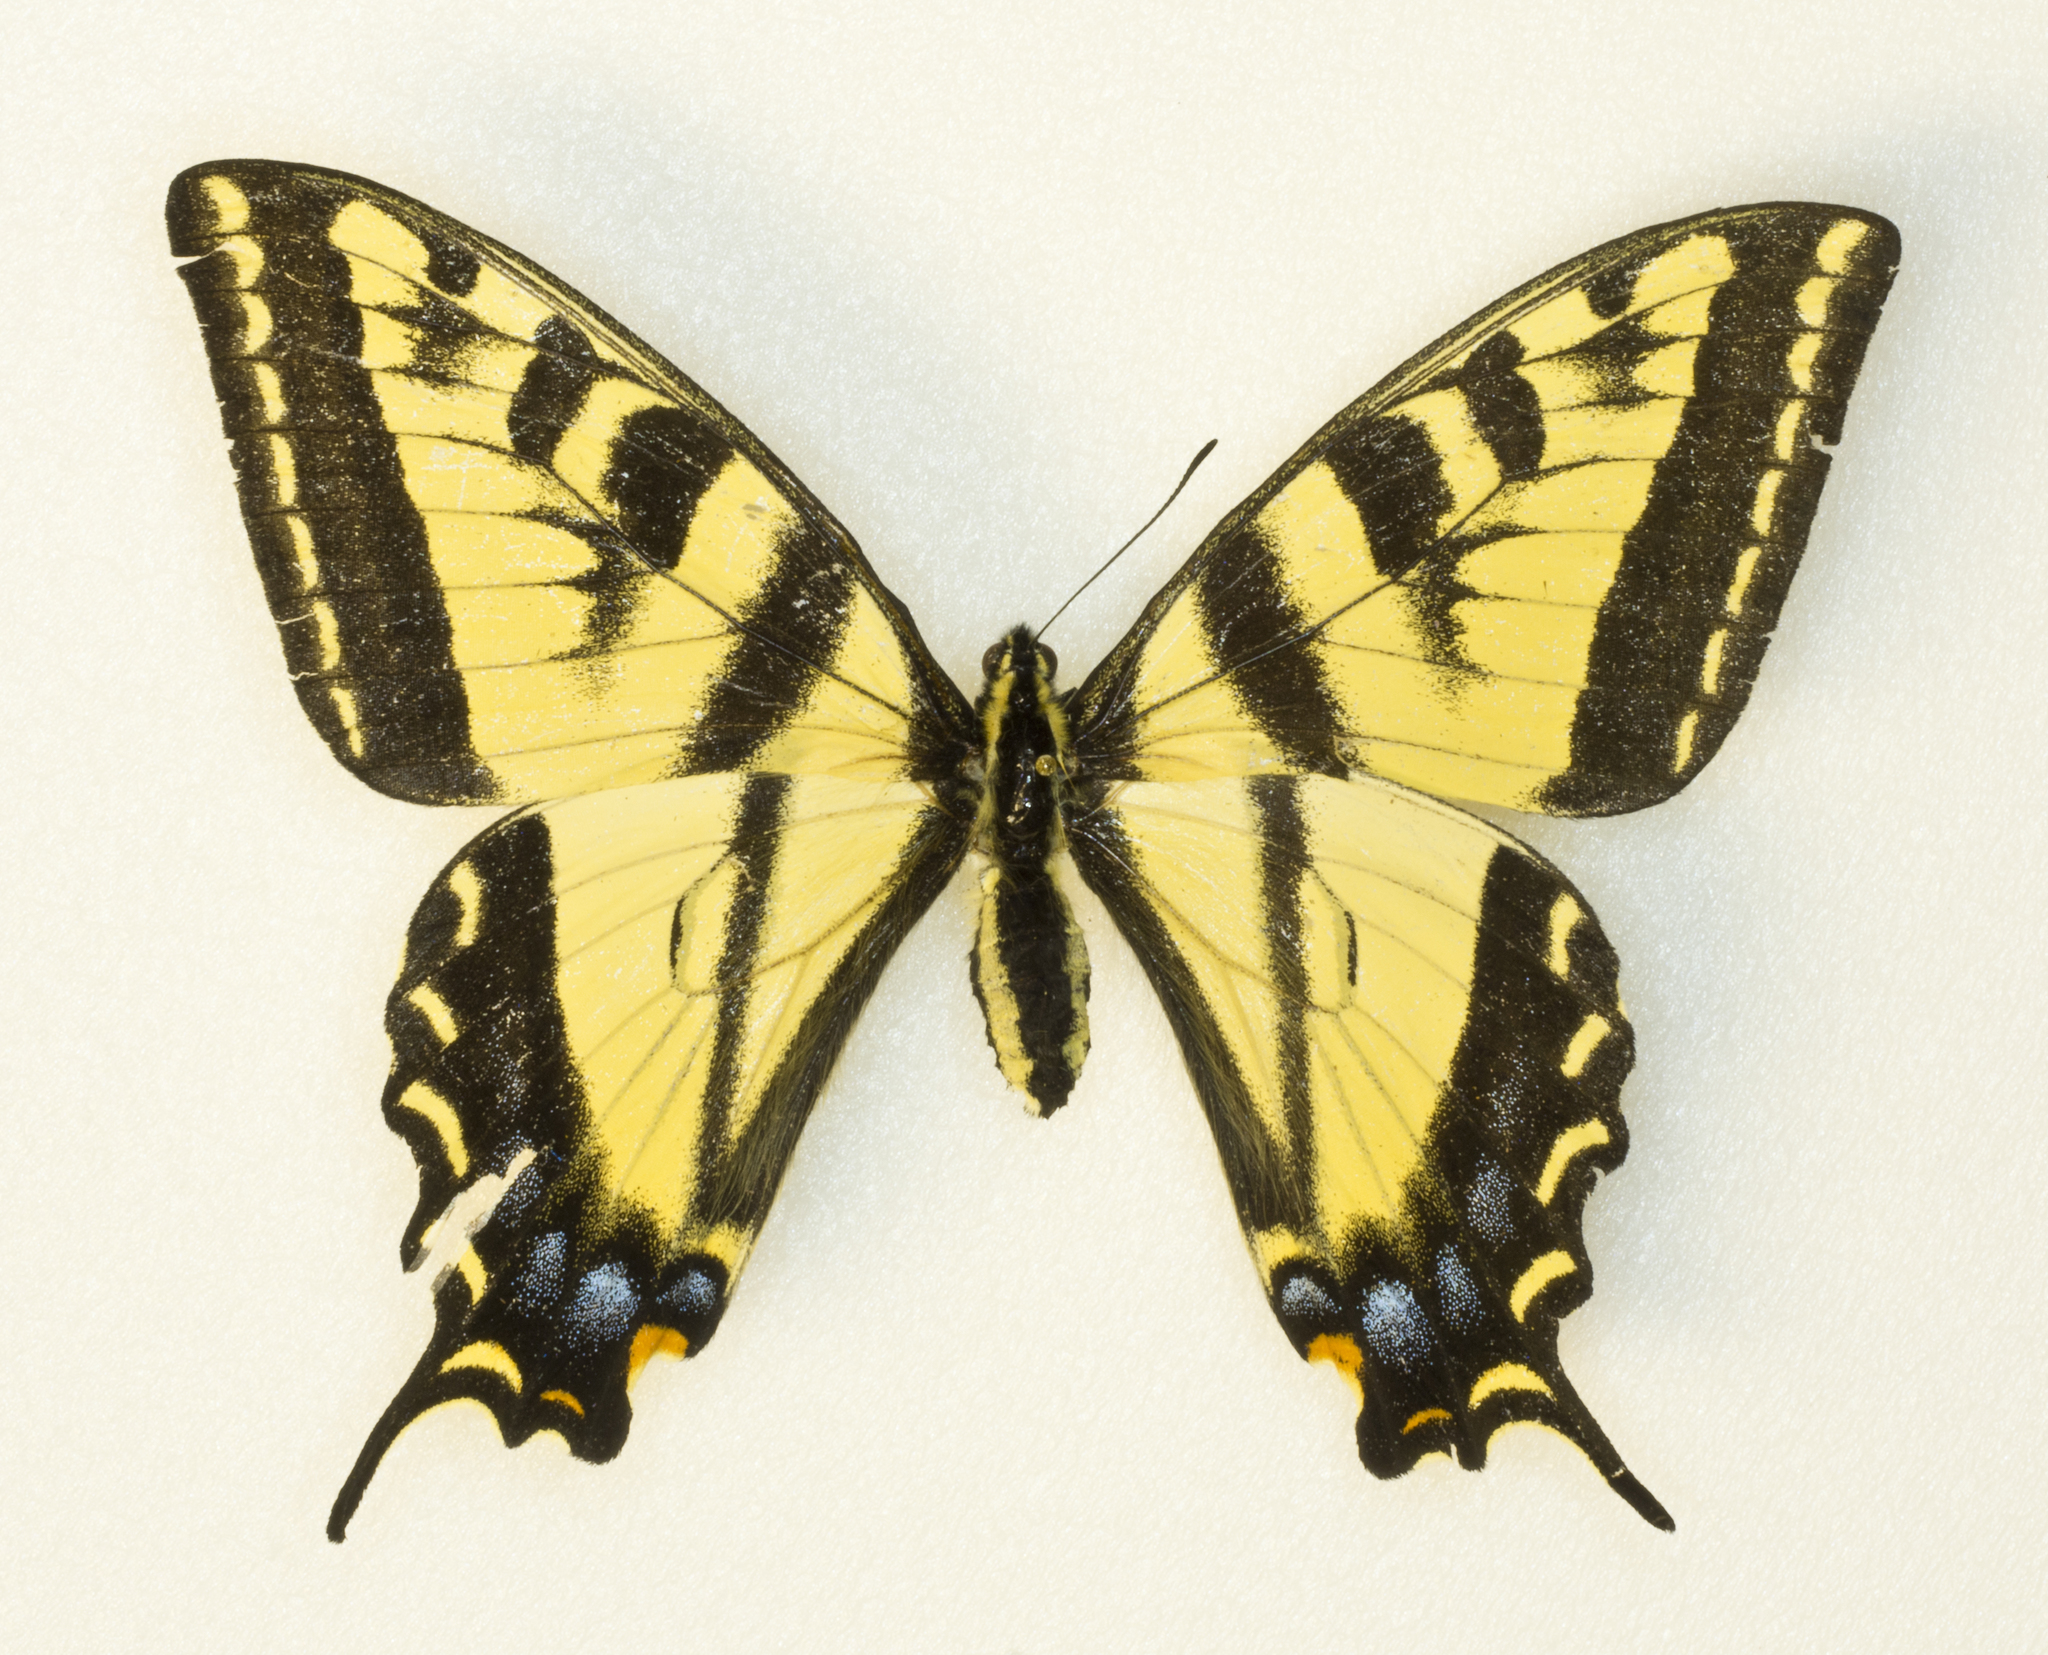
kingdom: Animalia
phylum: Arthropoda
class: Insecta
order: Lepidoptera
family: Papilionidae
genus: Papilio
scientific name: Papilio rutulus
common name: Western tiger swallowtail
